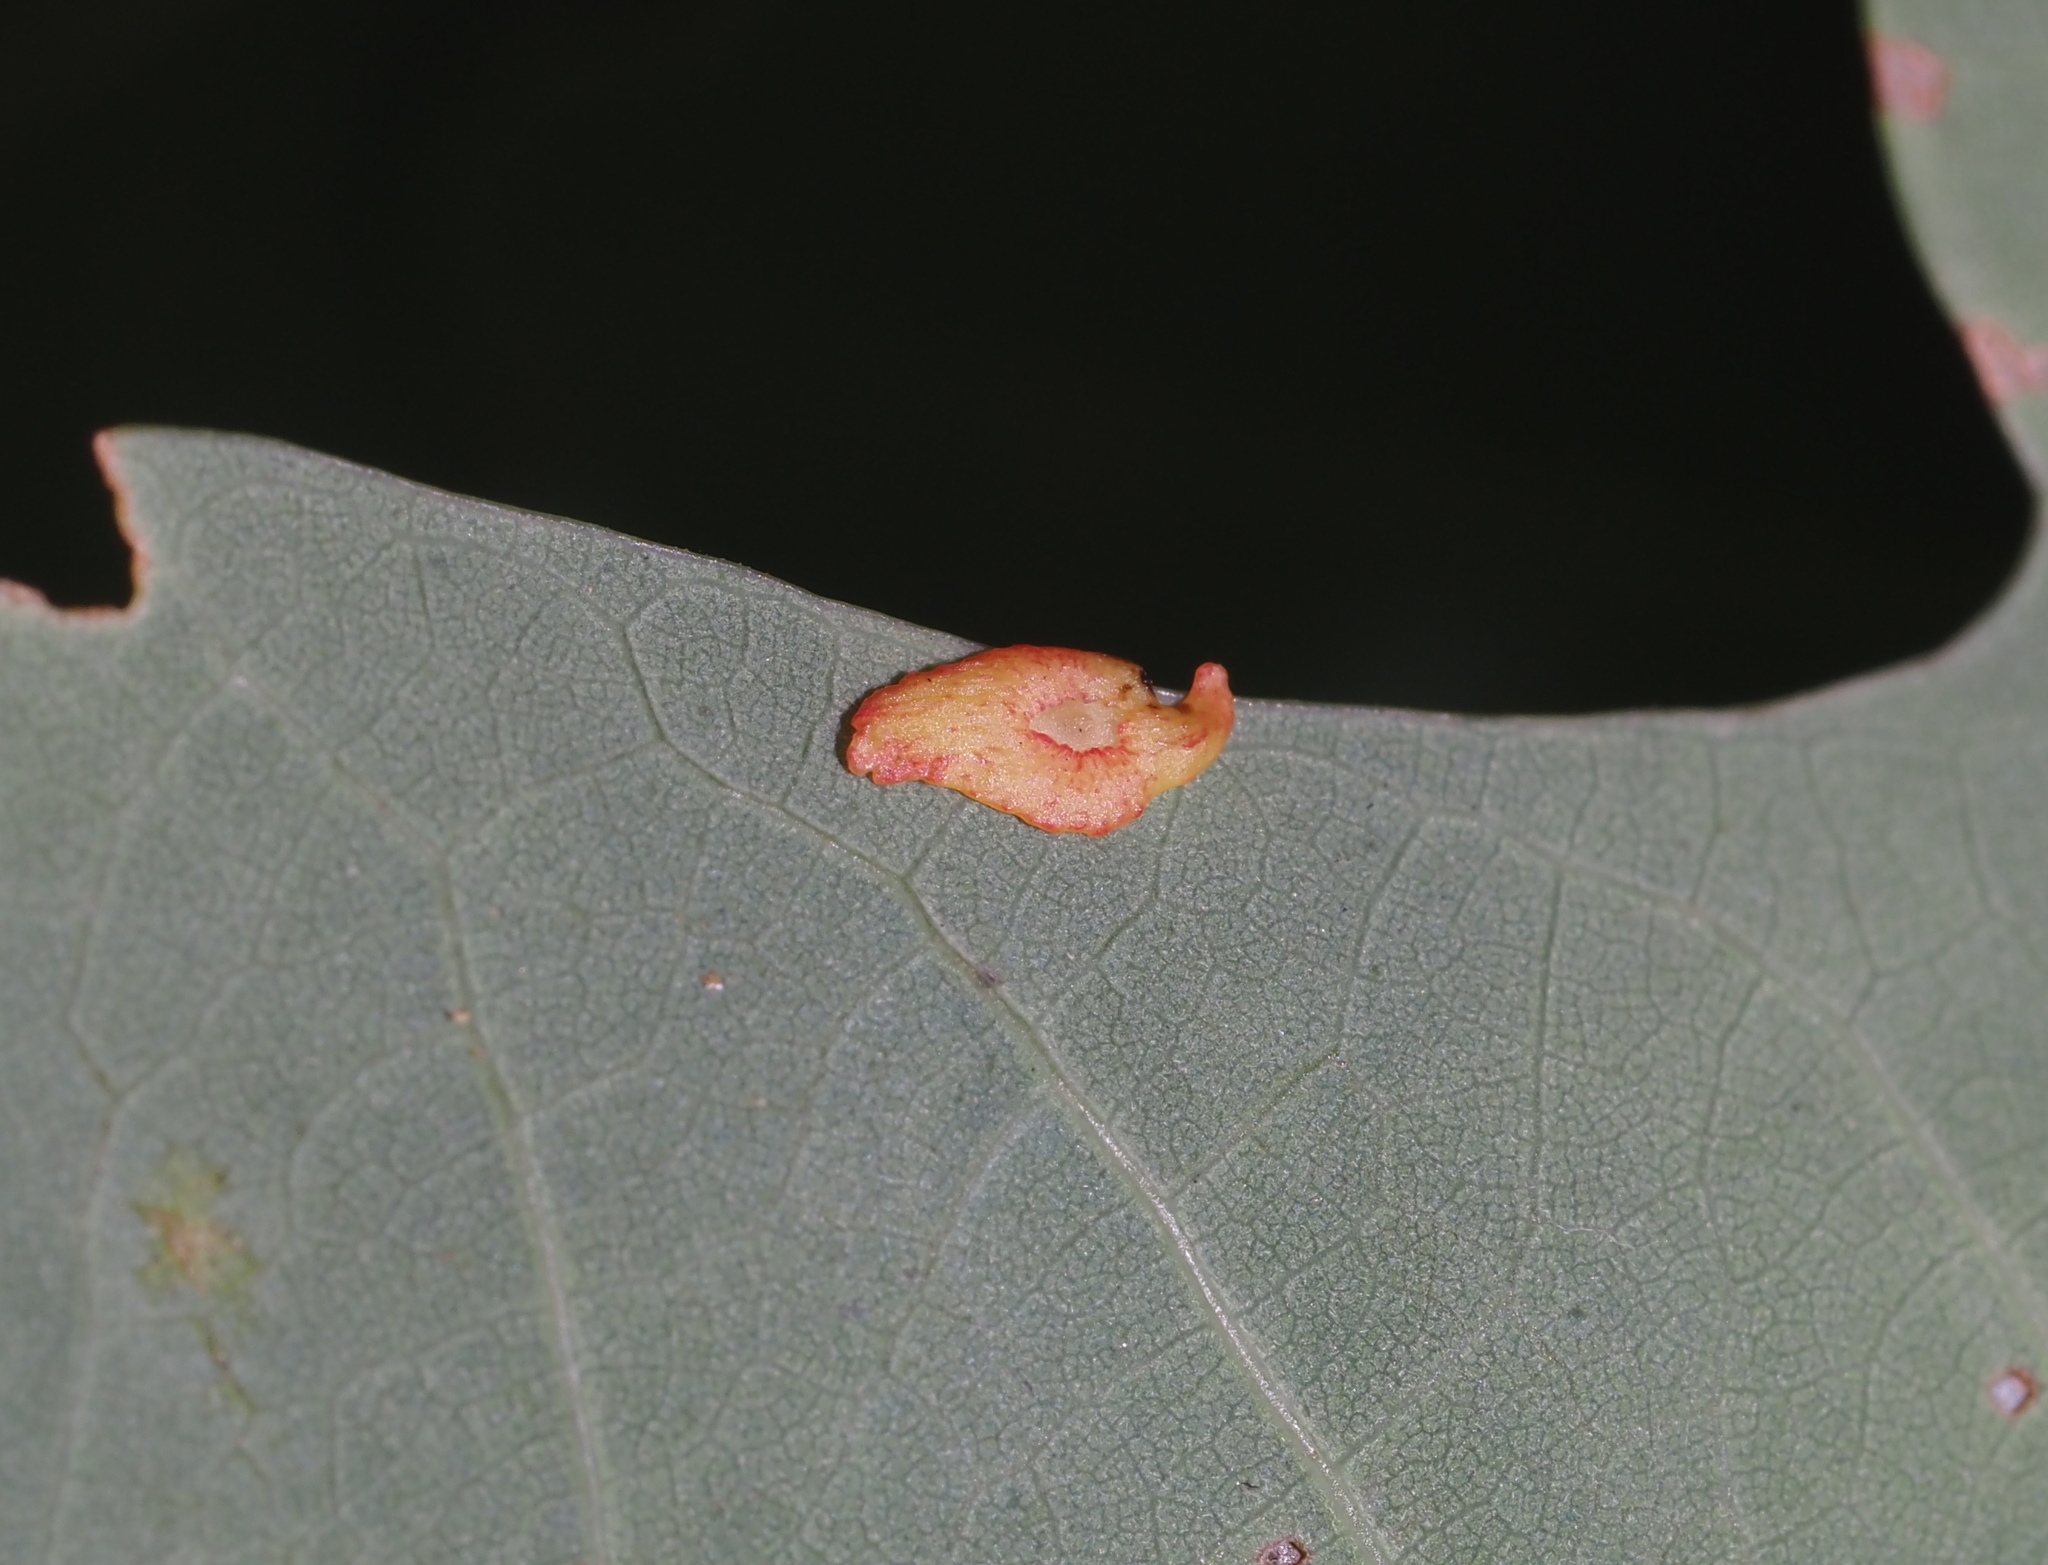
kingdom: Animalia
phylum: Arthropoda
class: Insecta
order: Hymenoptera
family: Cynipidae
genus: Phylloteras
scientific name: Phylloteras
